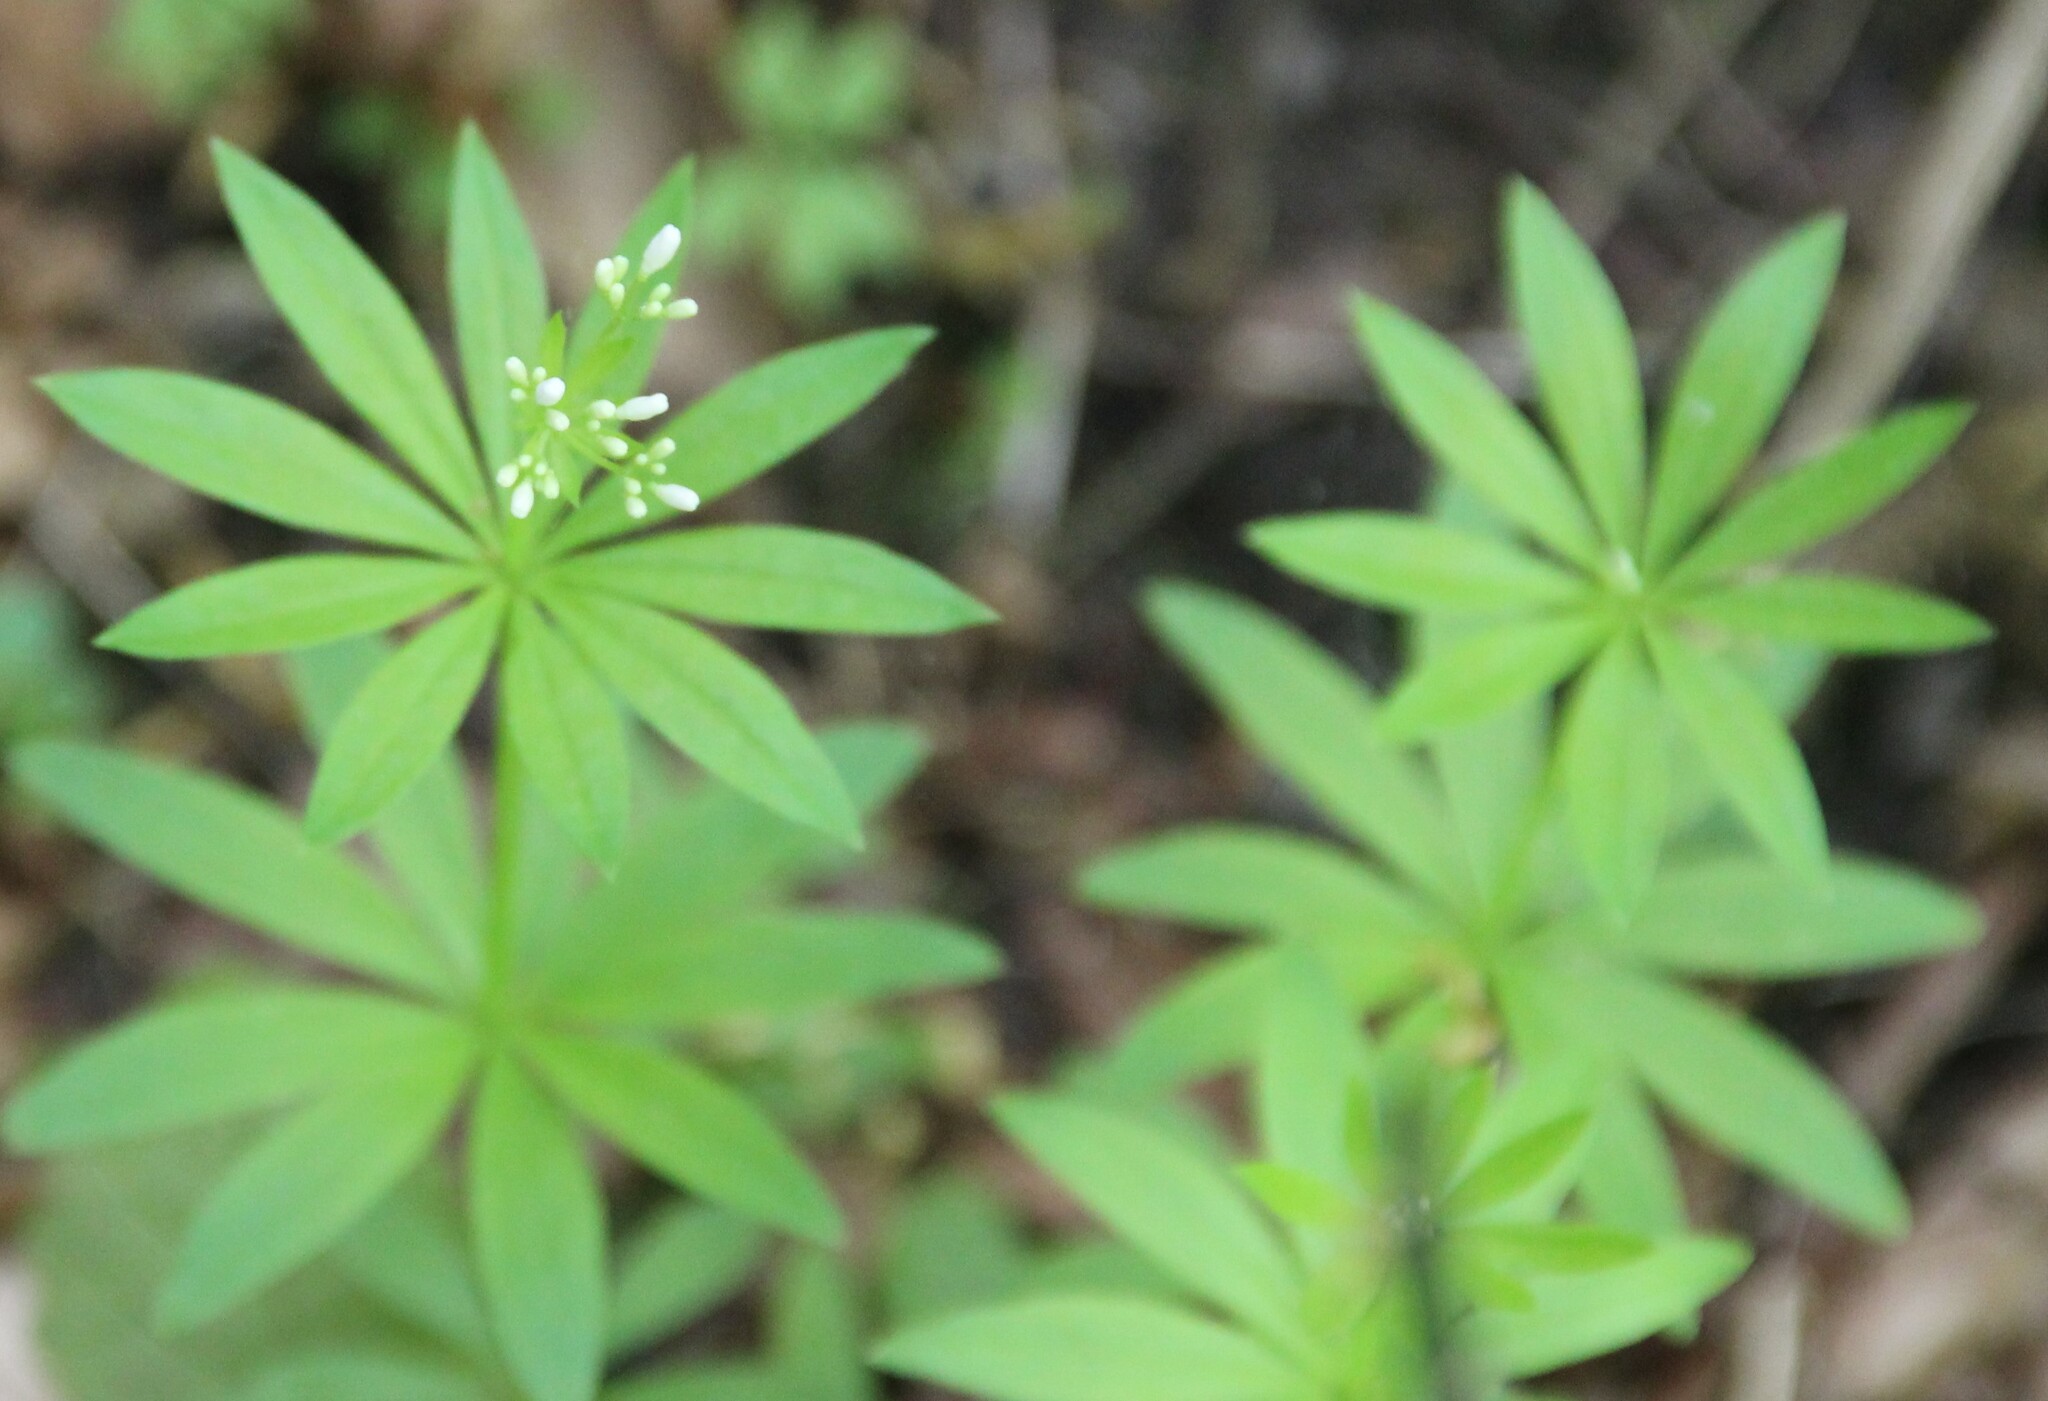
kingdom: Plantae
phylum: Tracheophyta
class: Magnoliopsida
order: Gentianales
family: Rubiaceae
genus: Galium
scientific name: Galium odoratum
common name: Sweet woodruff
